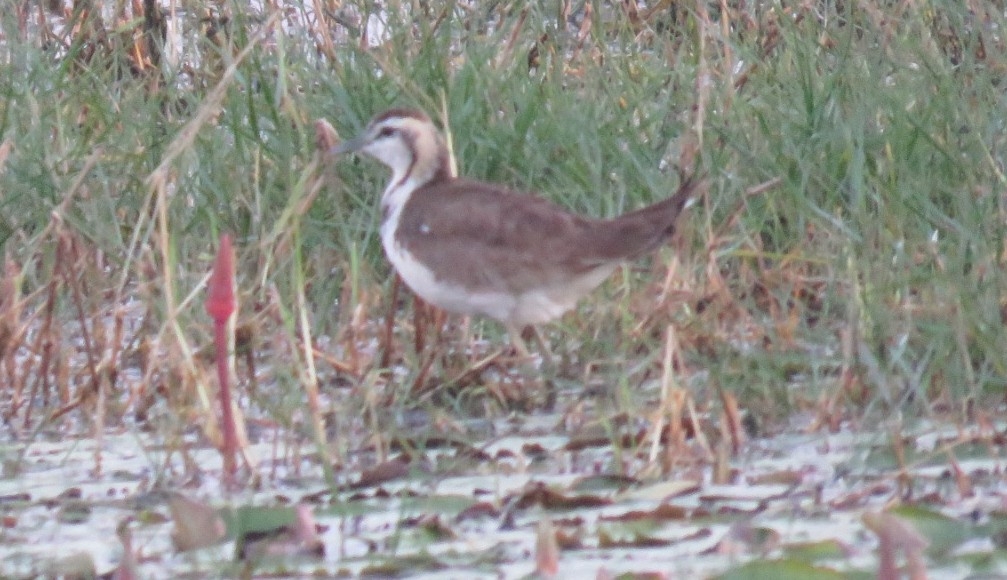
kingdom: Animalia
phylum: Chordata
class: Aves
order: Charadriiformes
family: Jacanidae
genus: Hydrophasianus
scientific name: Hydrophasianus chirurgus
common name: Pheasant-tailed jacana
